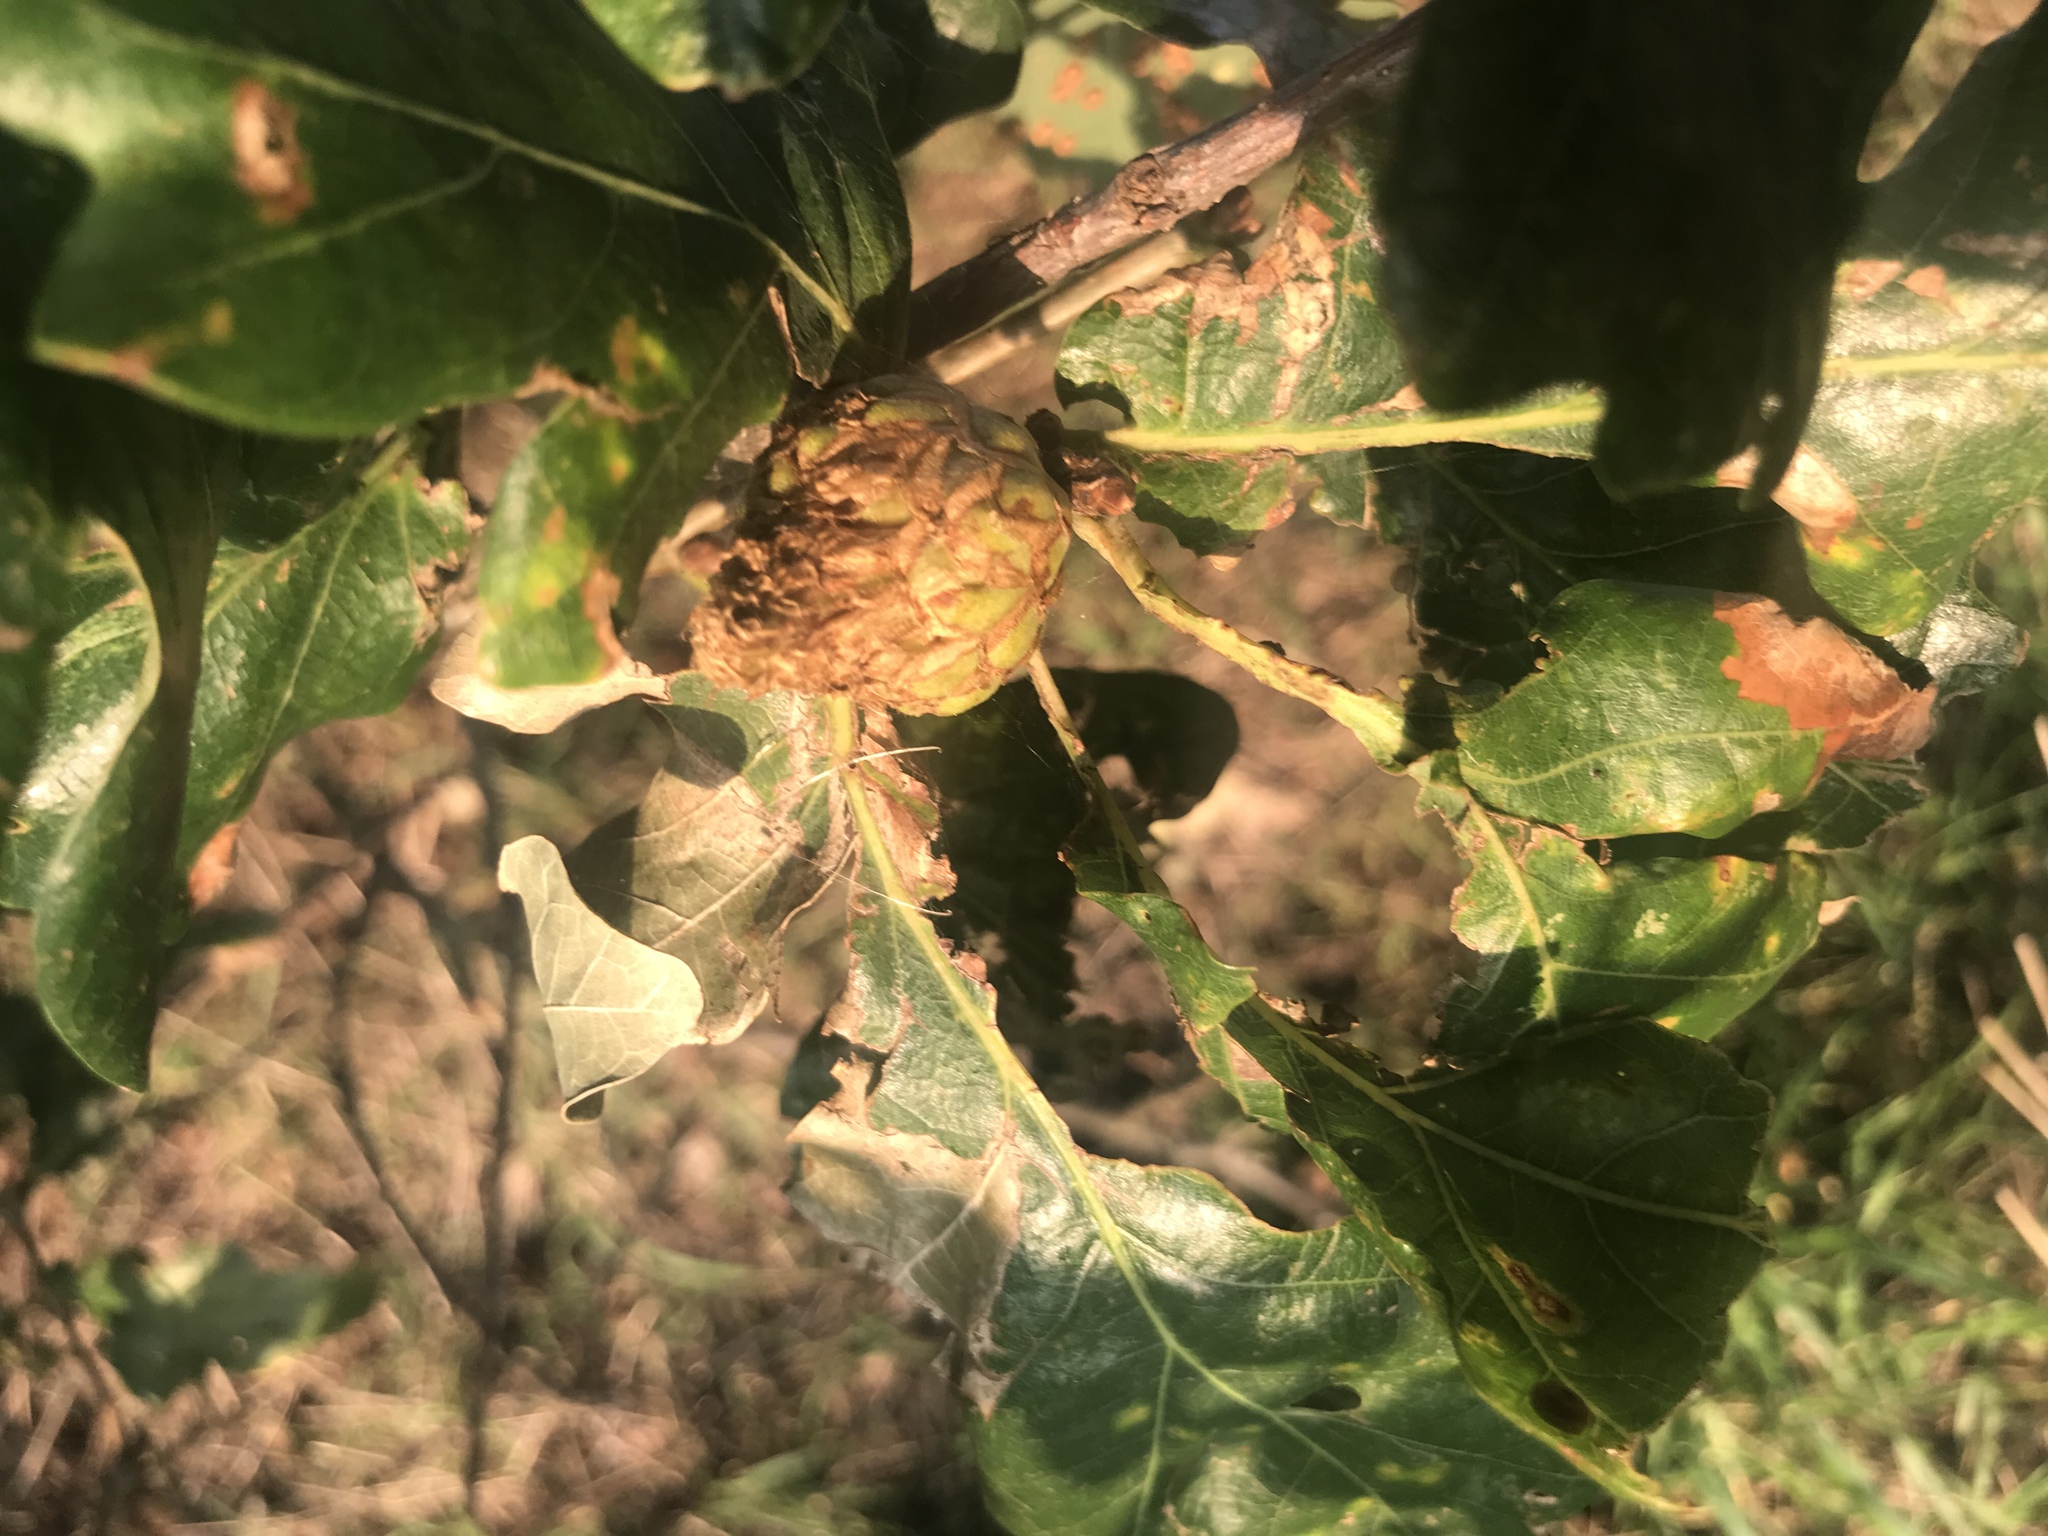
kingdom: Animalia
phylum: Arthropoda
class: Insecta
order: Hymenoptera
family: Cynipidae
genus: Andricus
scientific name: Andricus foecundatrix
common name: Artichoke gall
